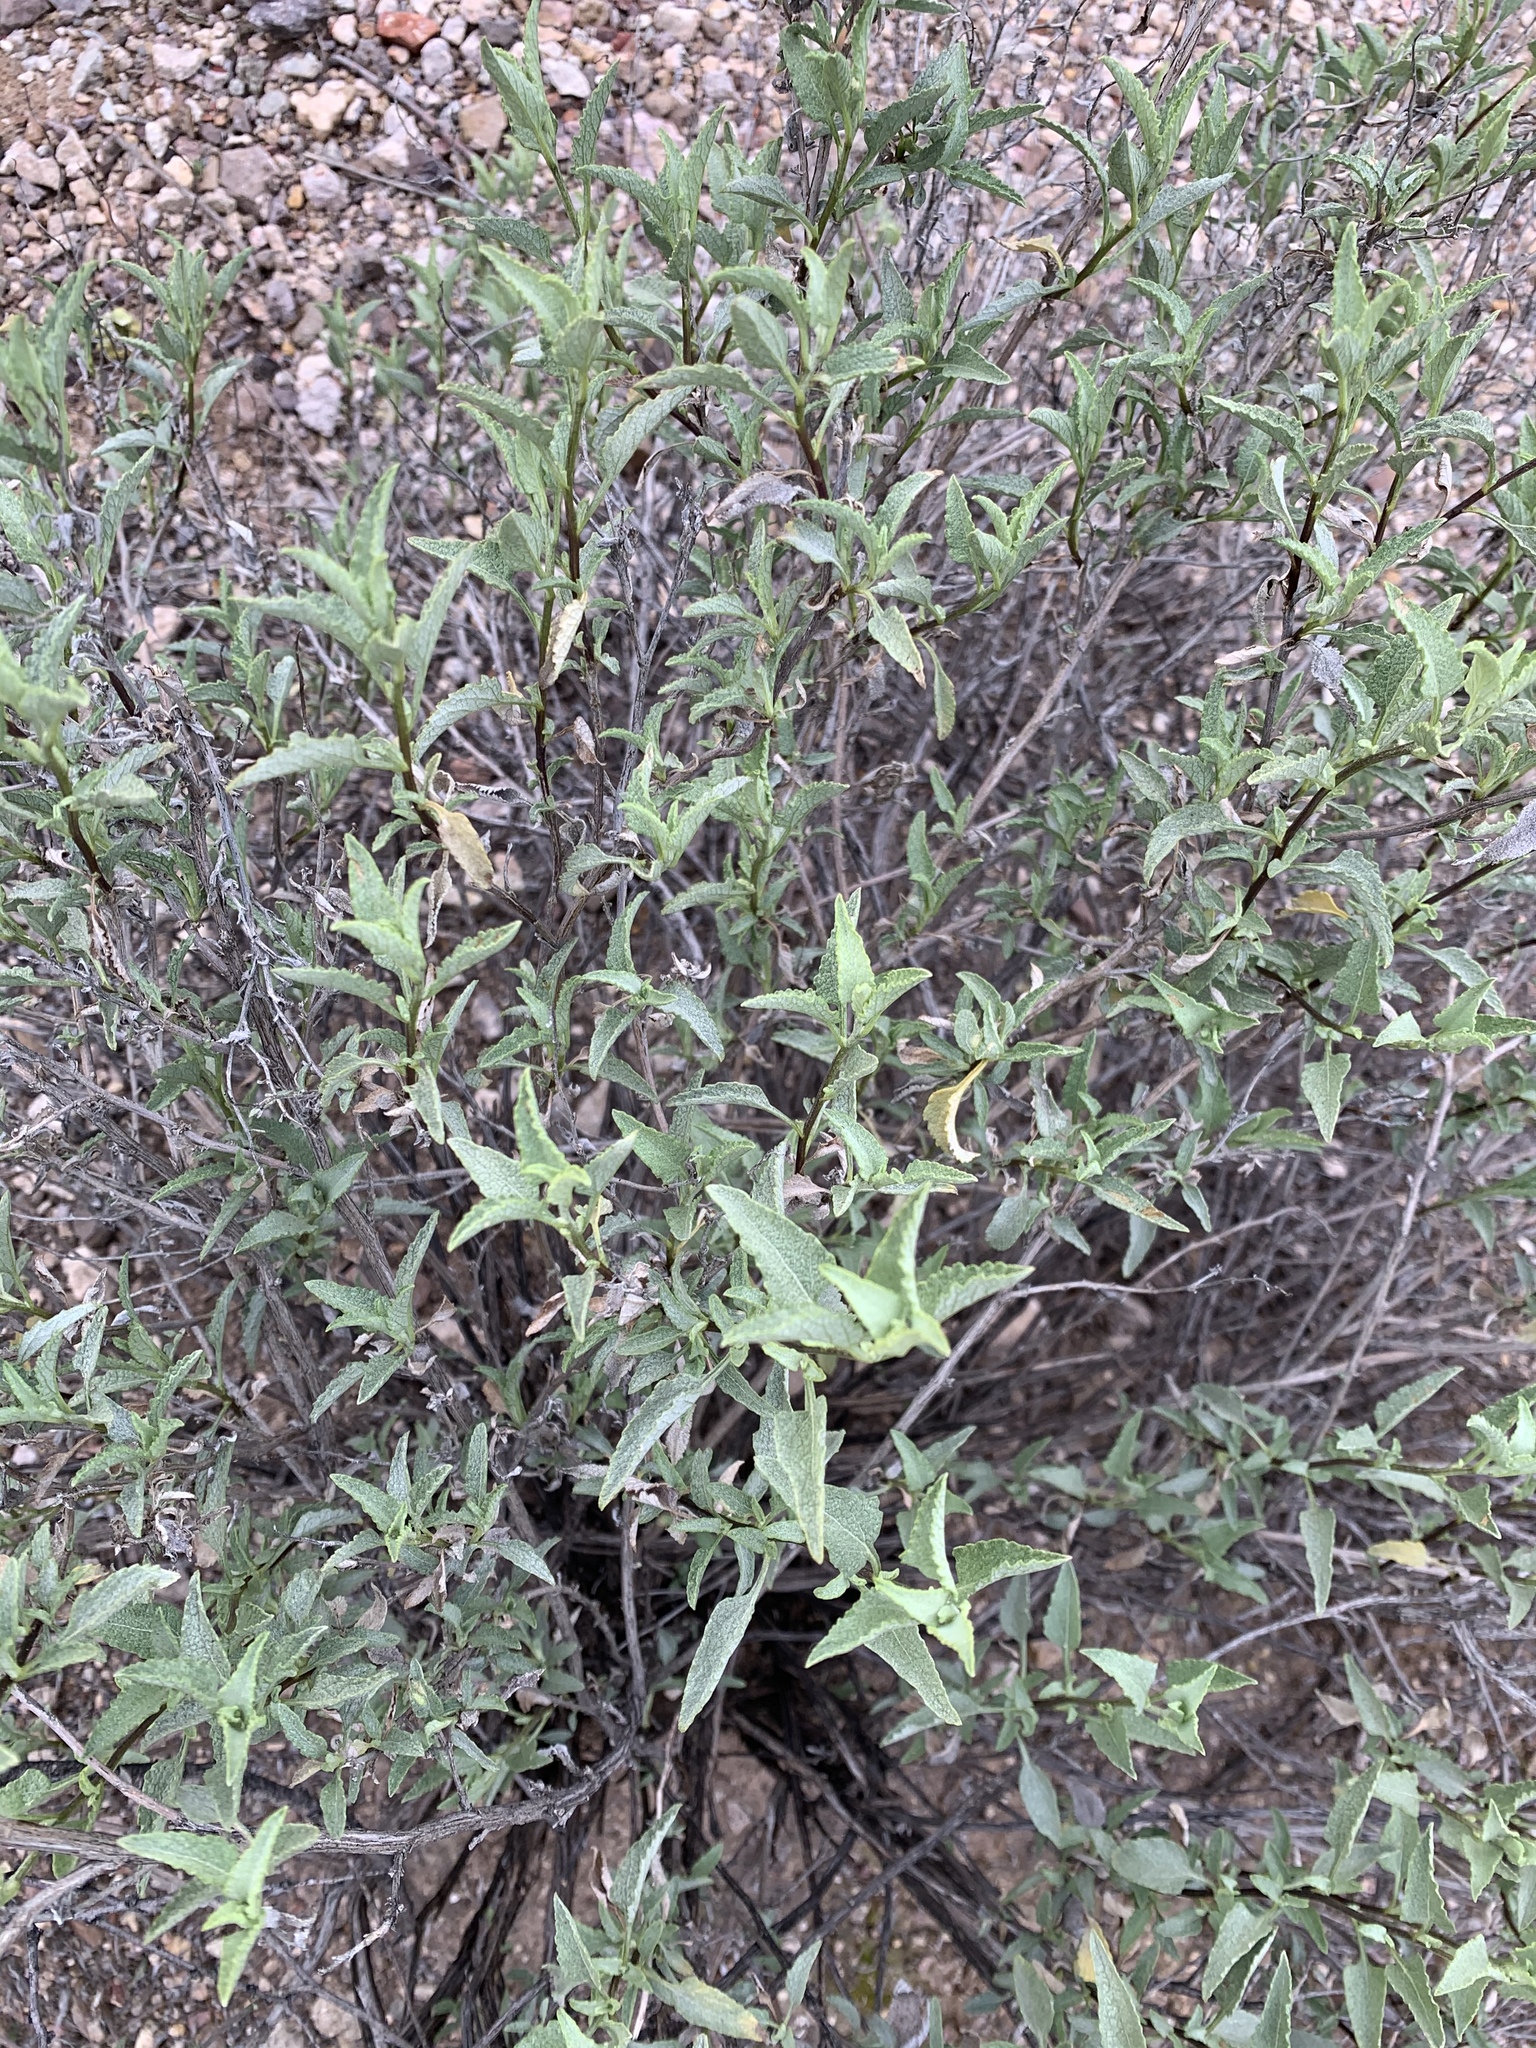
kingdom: Plantae
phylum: Tracheophyta
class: Magnoliopsida
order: Asterales
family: Asteraceae
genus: Ambrosia
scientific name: Ambrosia deltoidea
